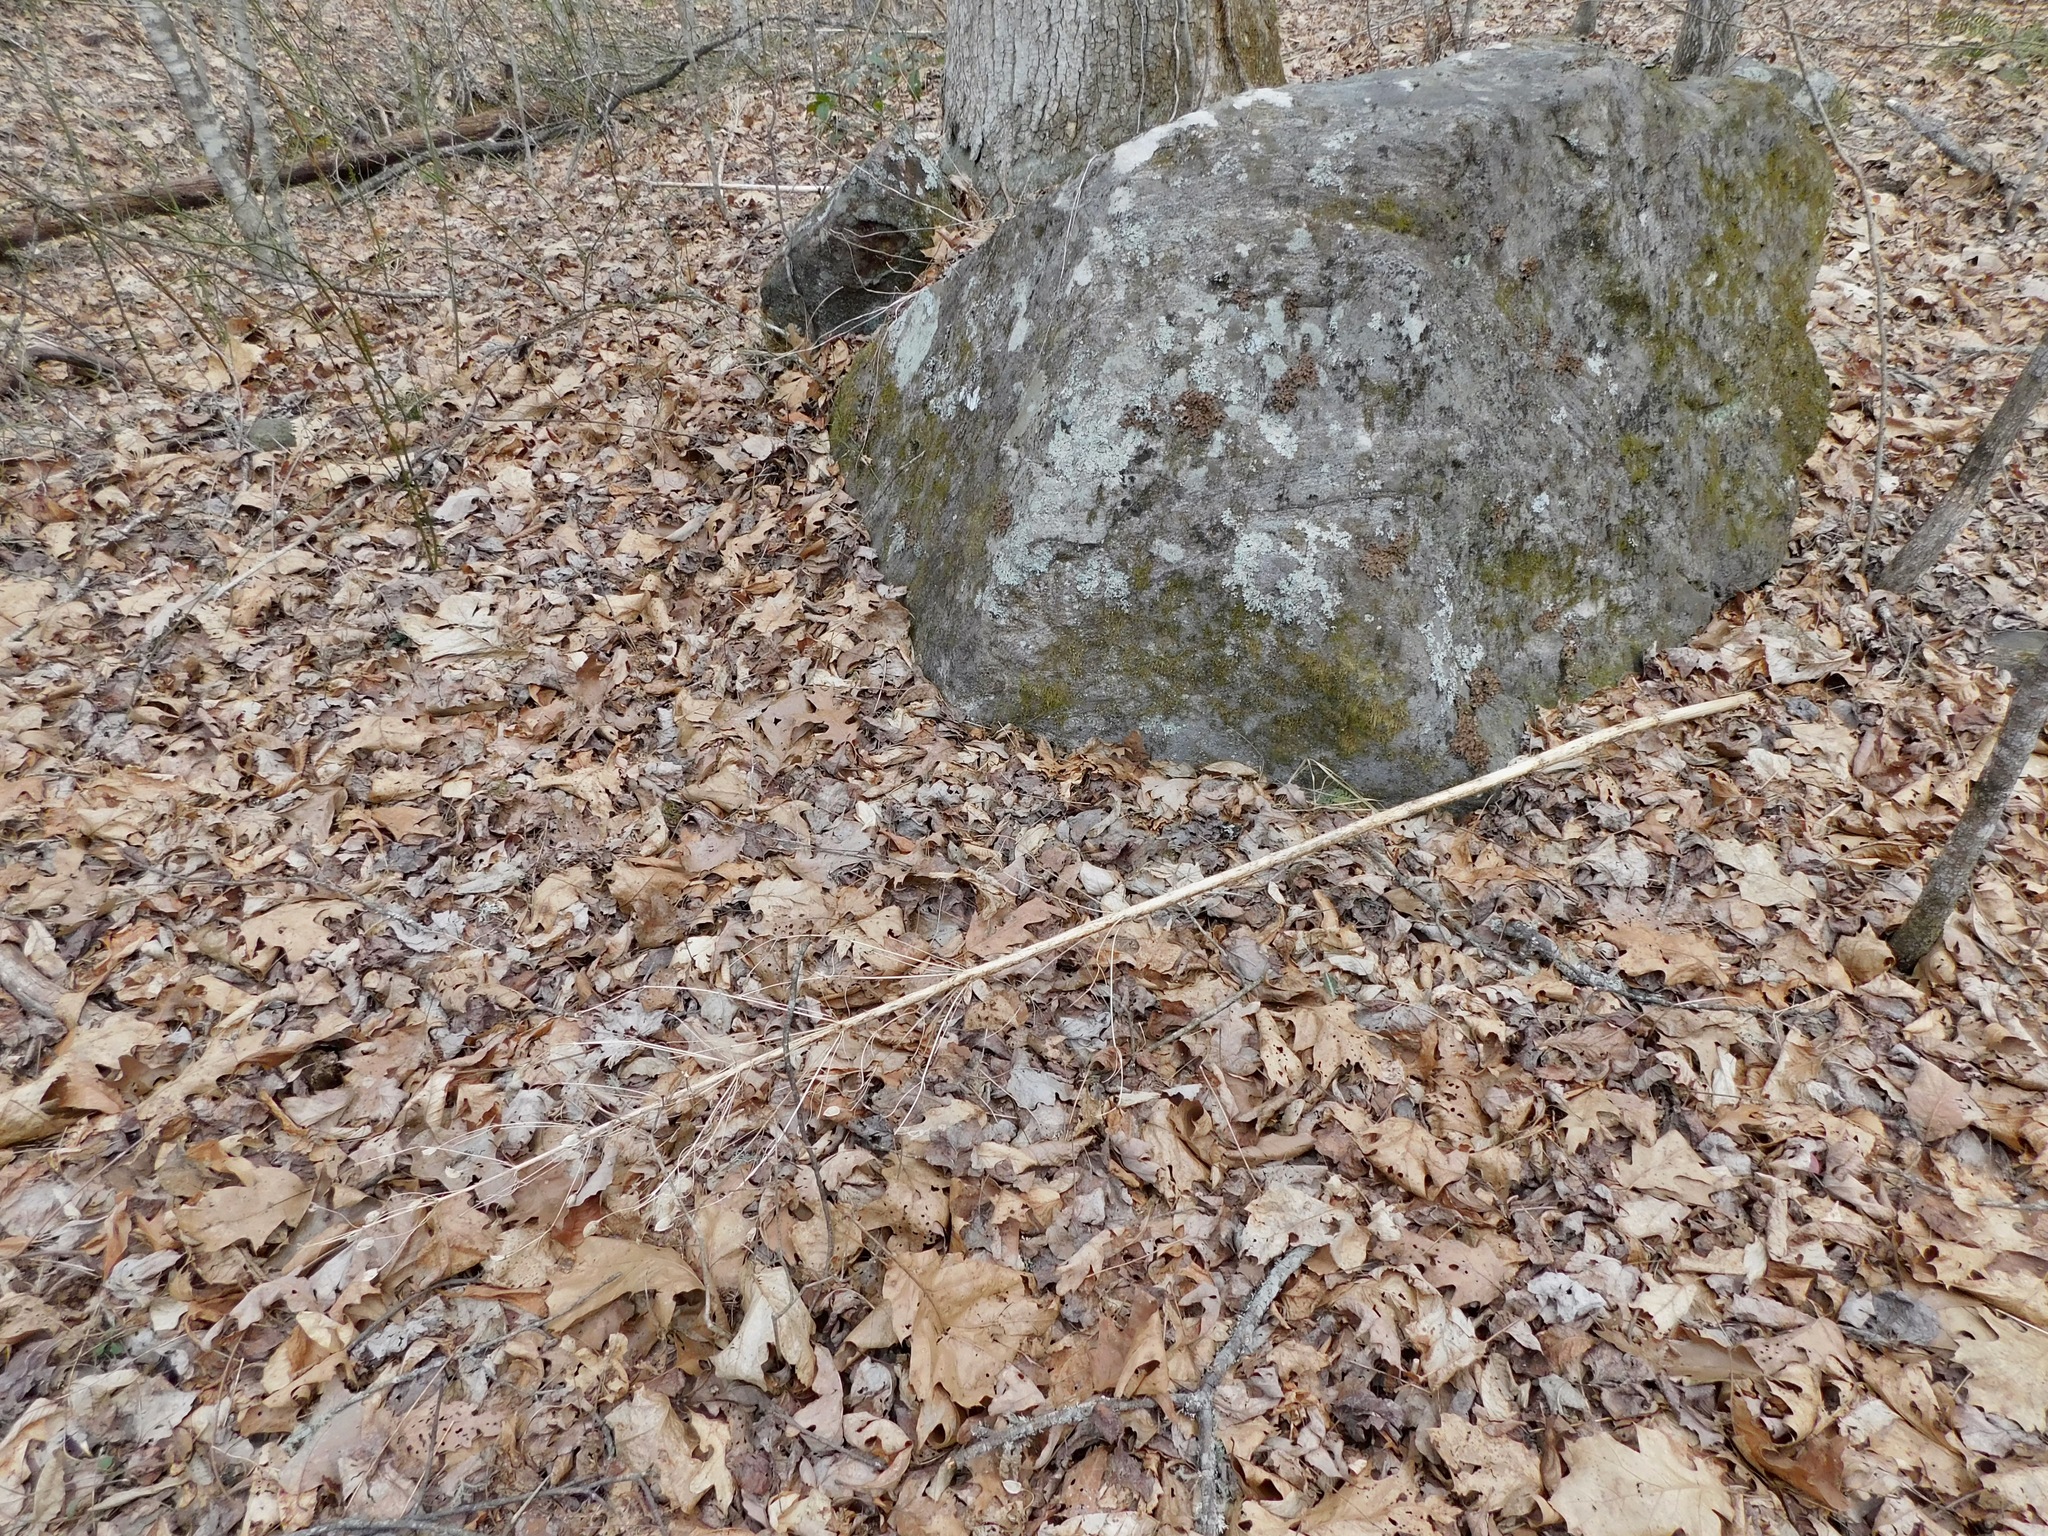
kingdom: Plantae
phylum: Tracheophyta
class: Magnoliopsida
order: Gentianales
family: Gentianaceae
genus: Frasera
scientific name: Frasera caroliniensis
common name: American columbo
